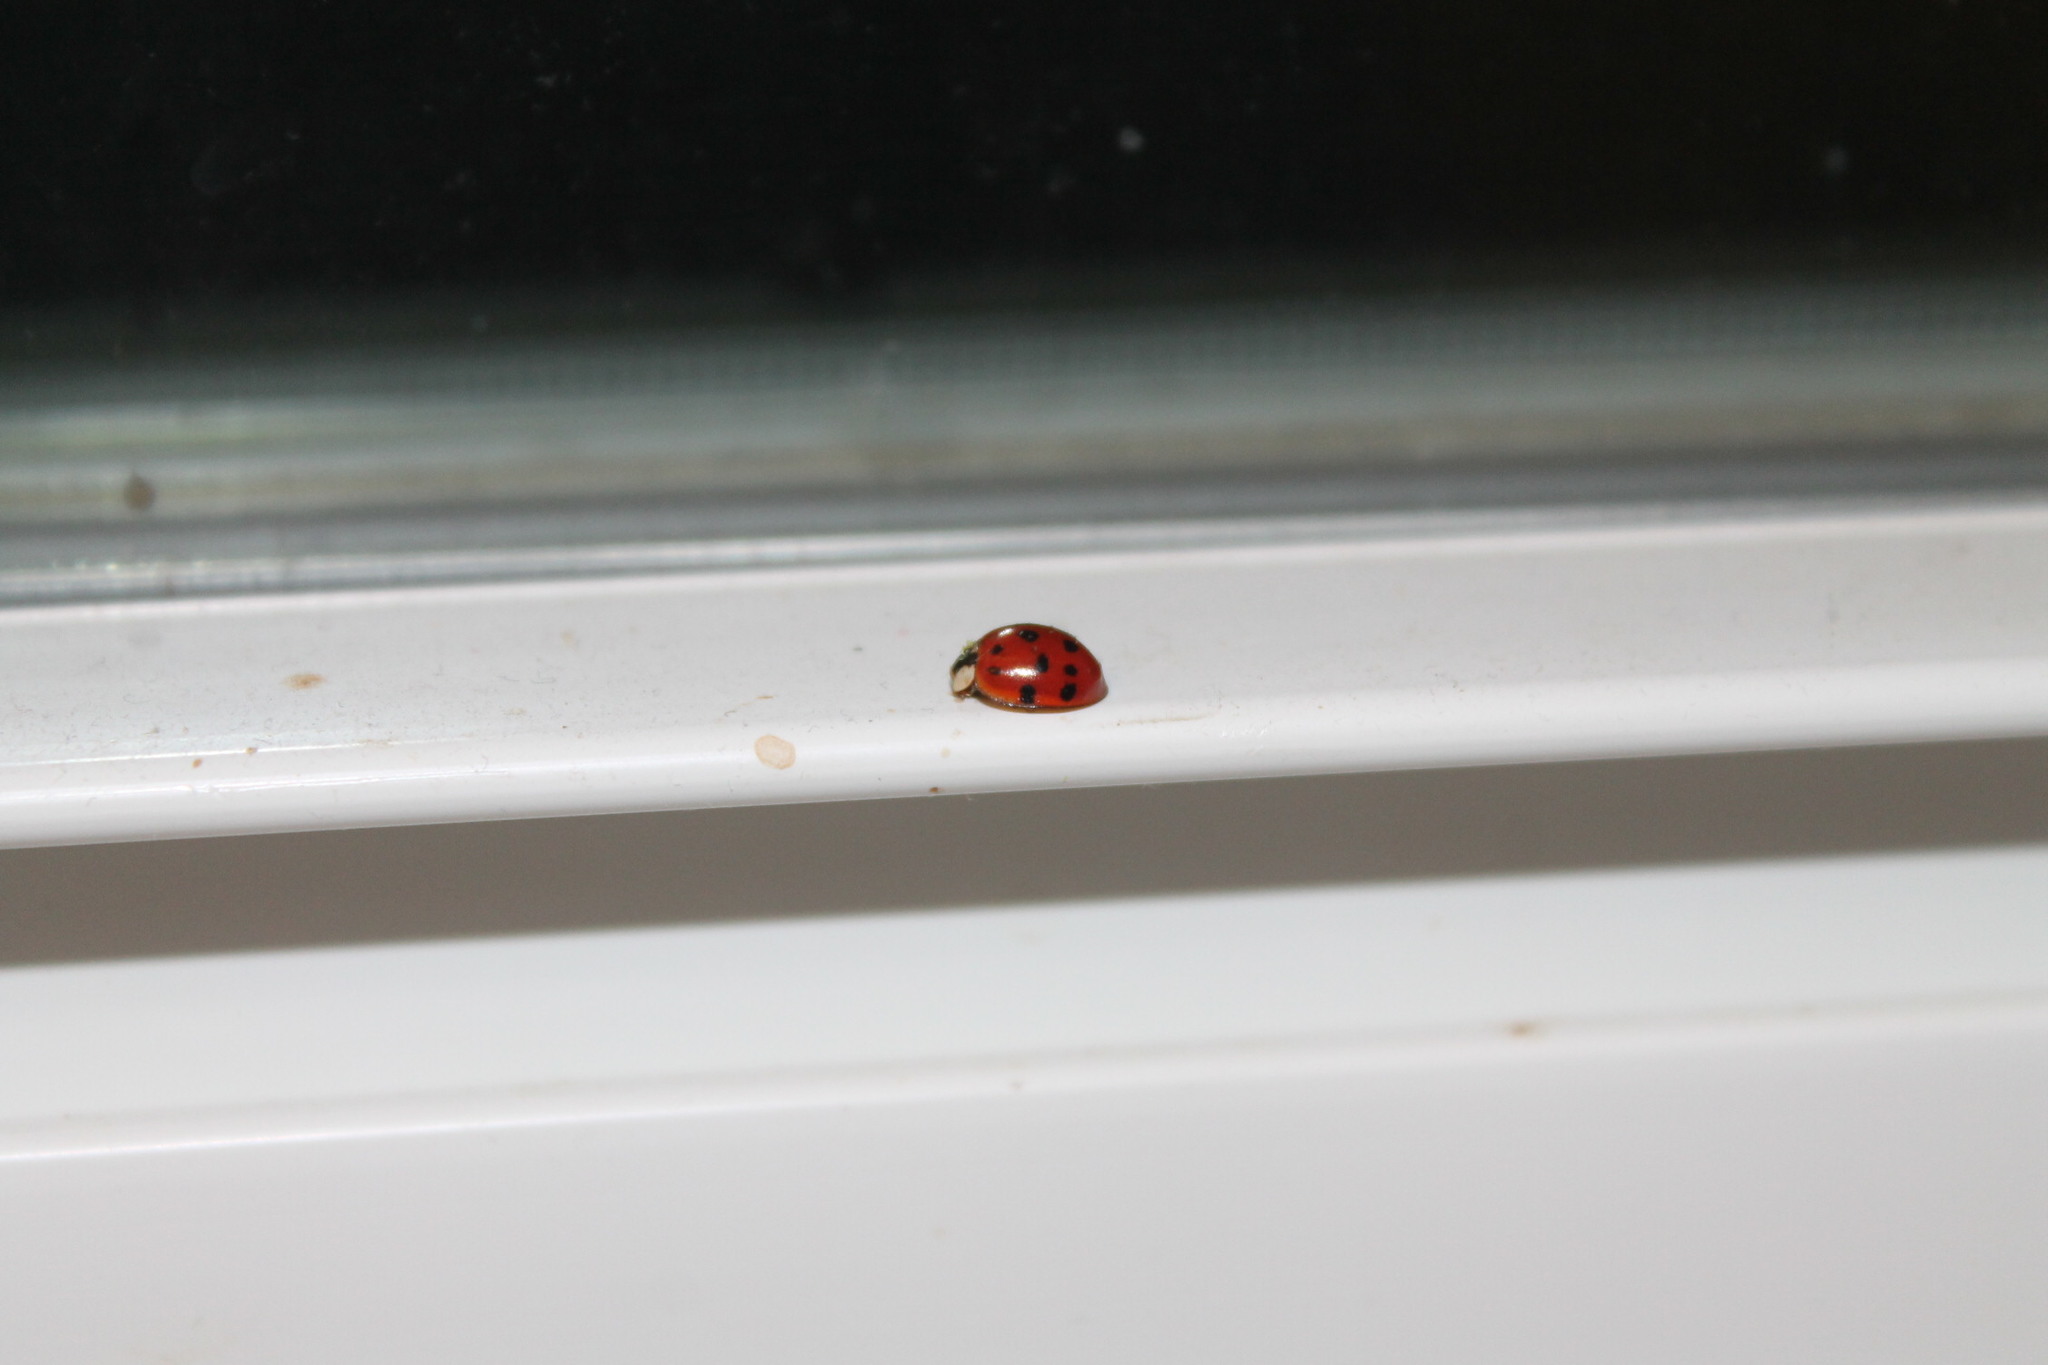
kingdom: Animalia
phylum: Arthropoda
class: Insecta
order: Coleoptera
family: Coccinellidae
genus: Harmonia
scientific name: Harmonia axyridis
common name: Harlequin ladybird
